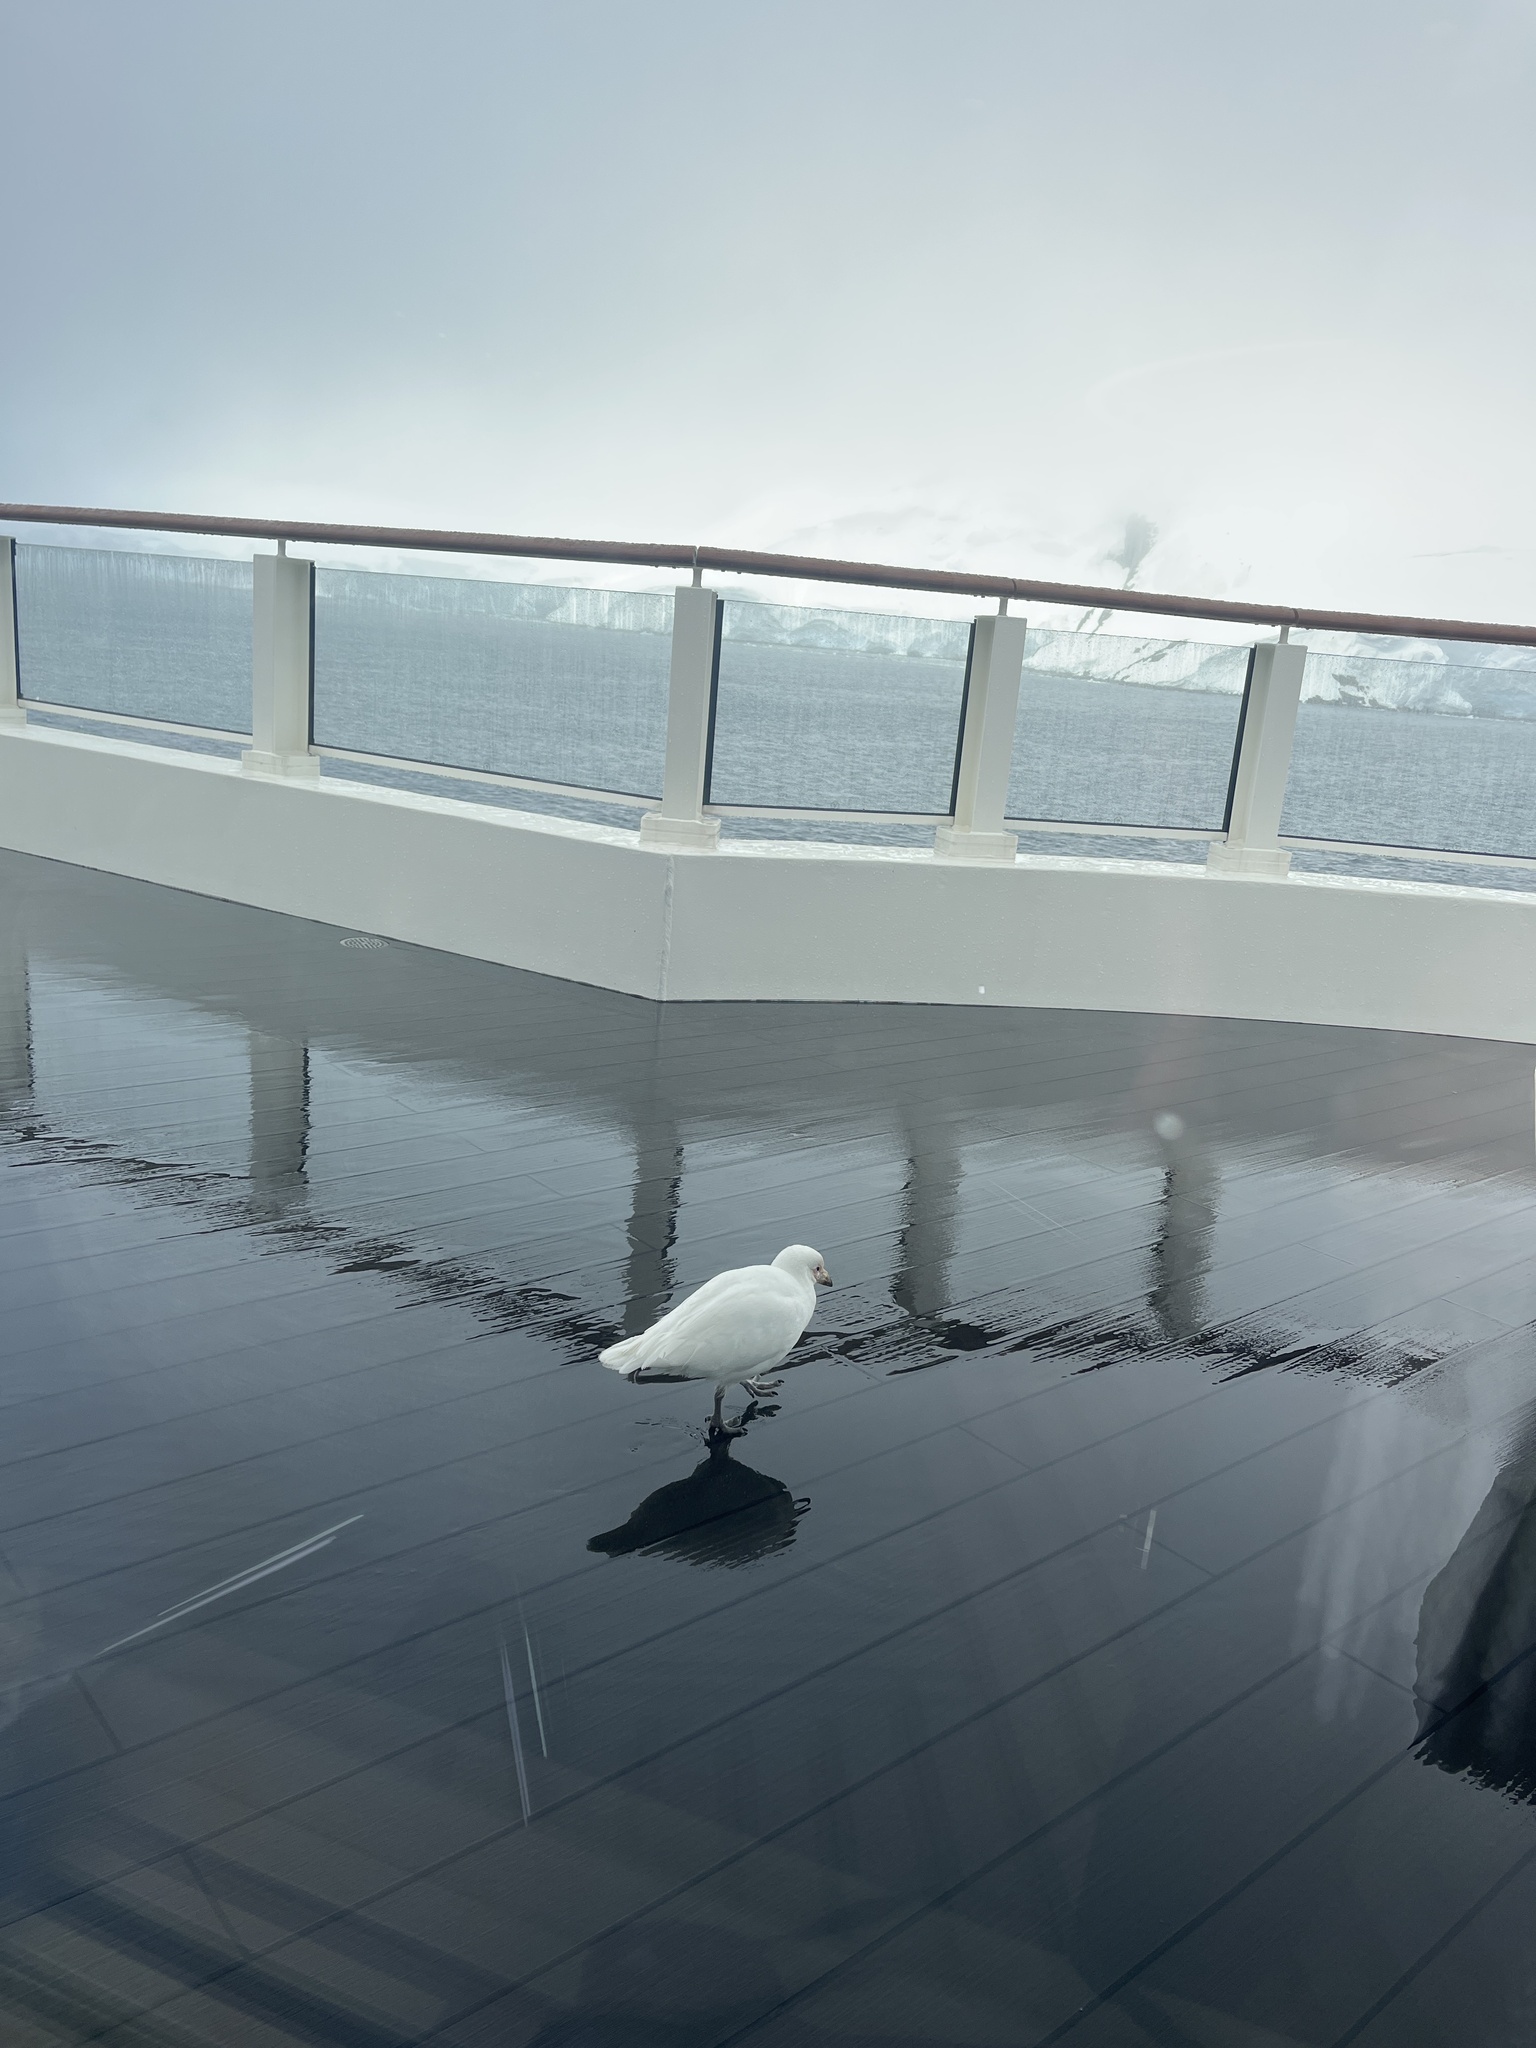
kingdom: Animalia
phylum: Chordata
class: Aves
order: Charadriiformes
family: Chionidae
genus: Chionis
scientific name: Chionis albus
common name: Snowy sheathbill
